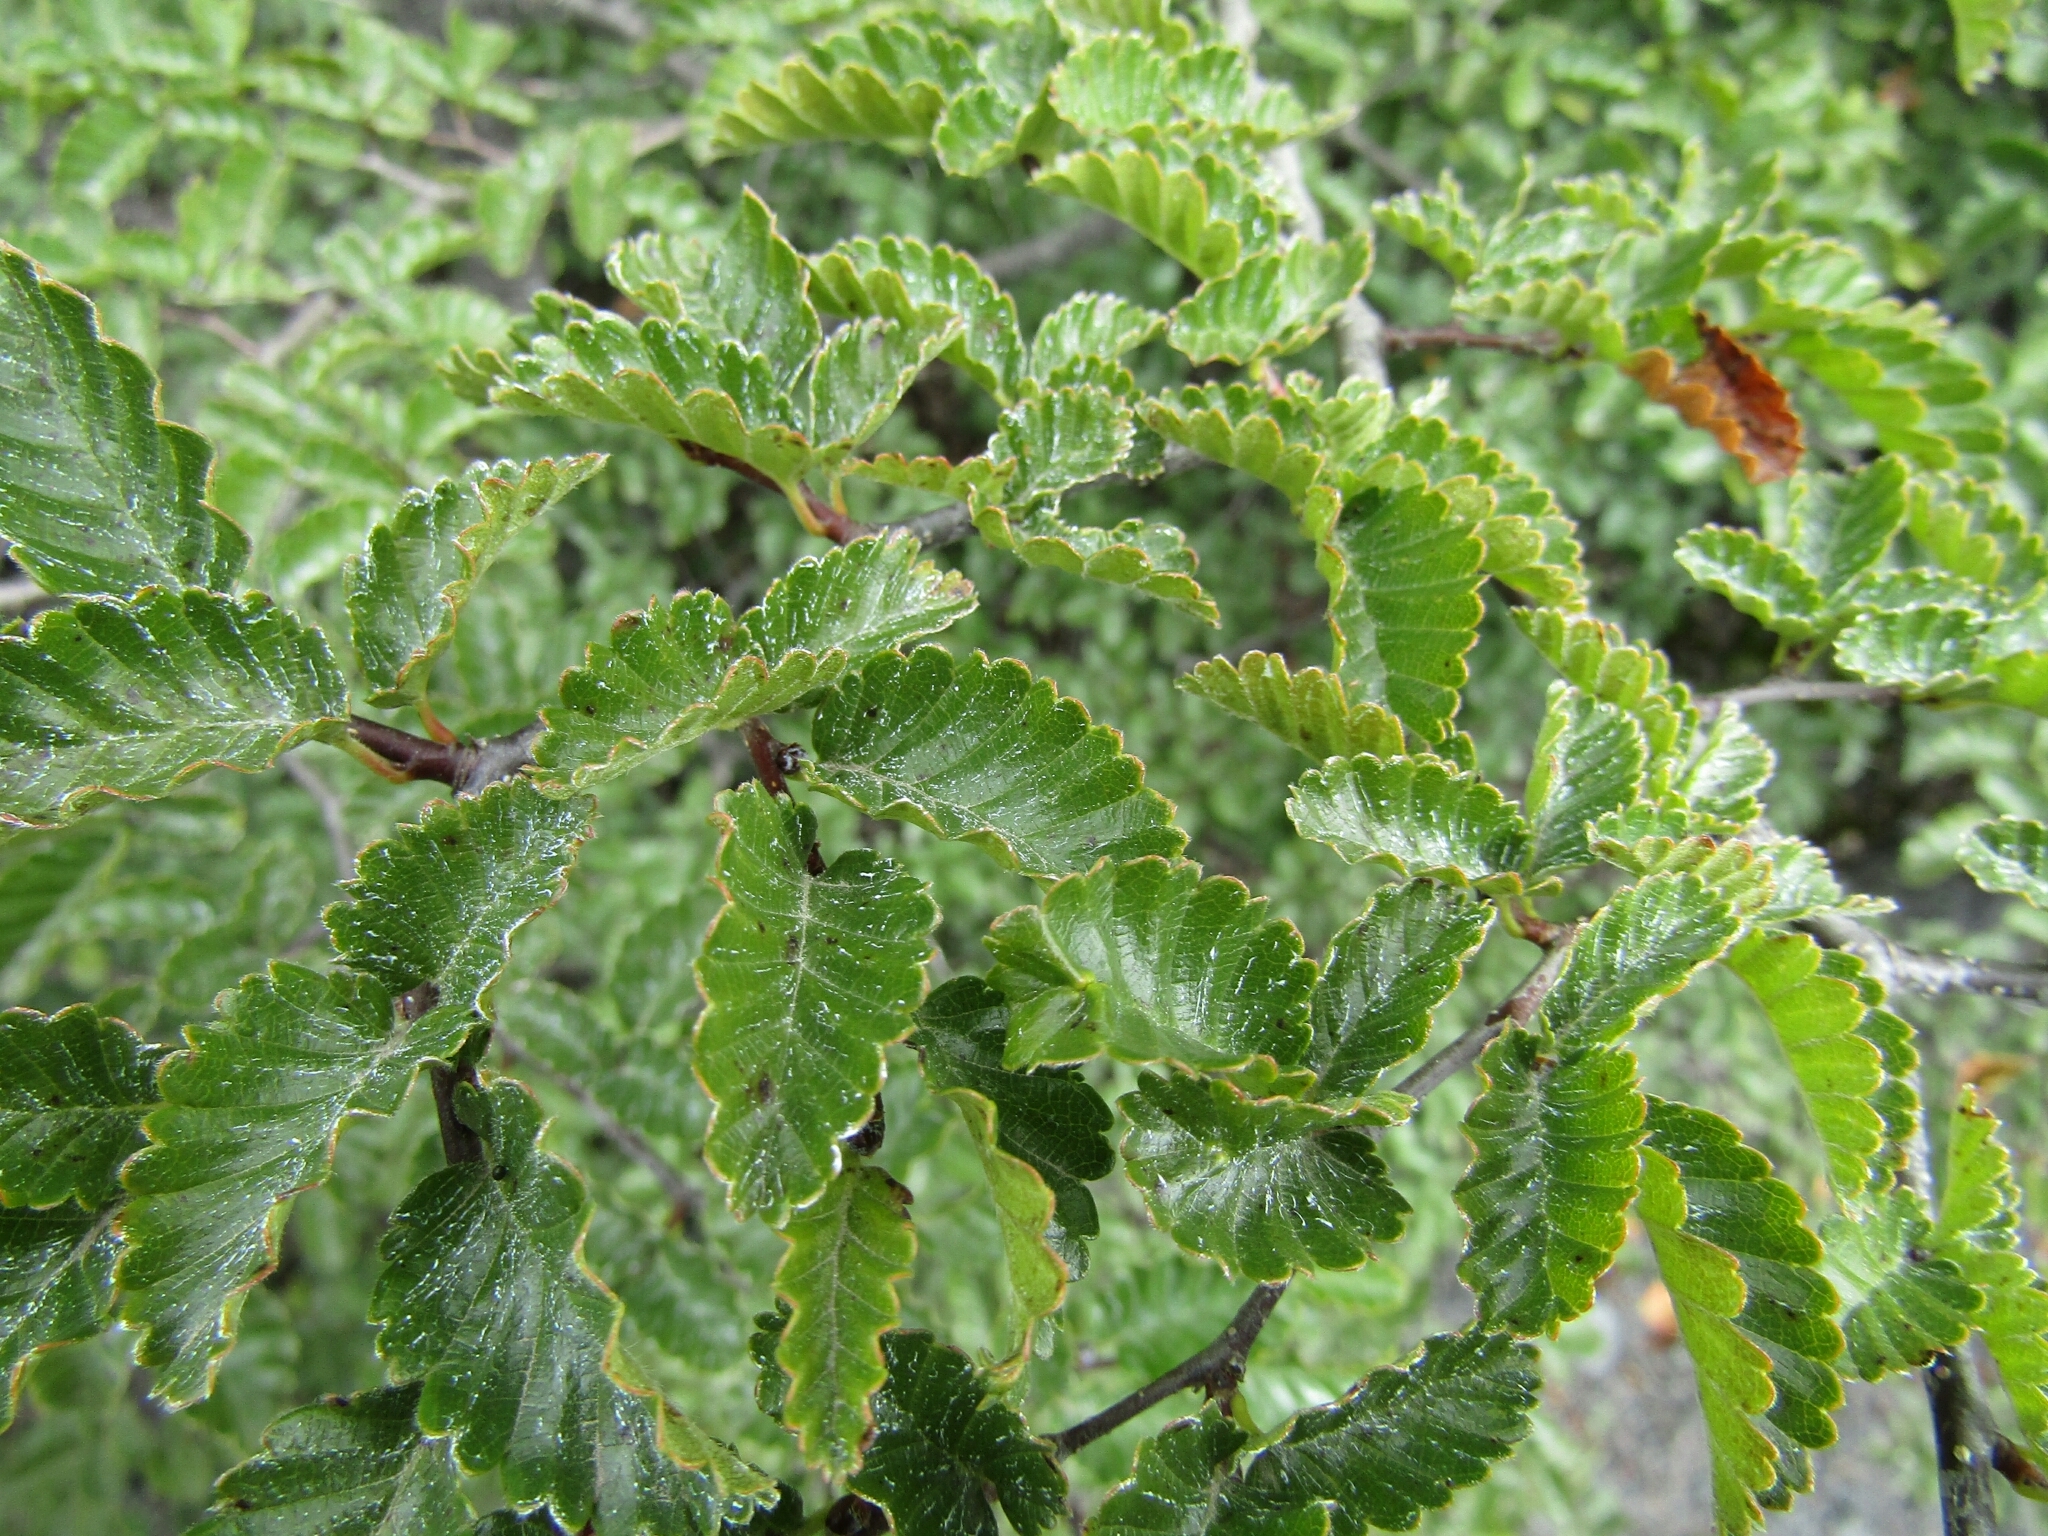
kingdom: Plantae
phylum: Tracheophyta
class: Magnoliopsida
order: Fagales
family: Nothofagaceae
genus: Nothofagus
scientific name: Nothofagus pumilio
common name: Lenga beech
